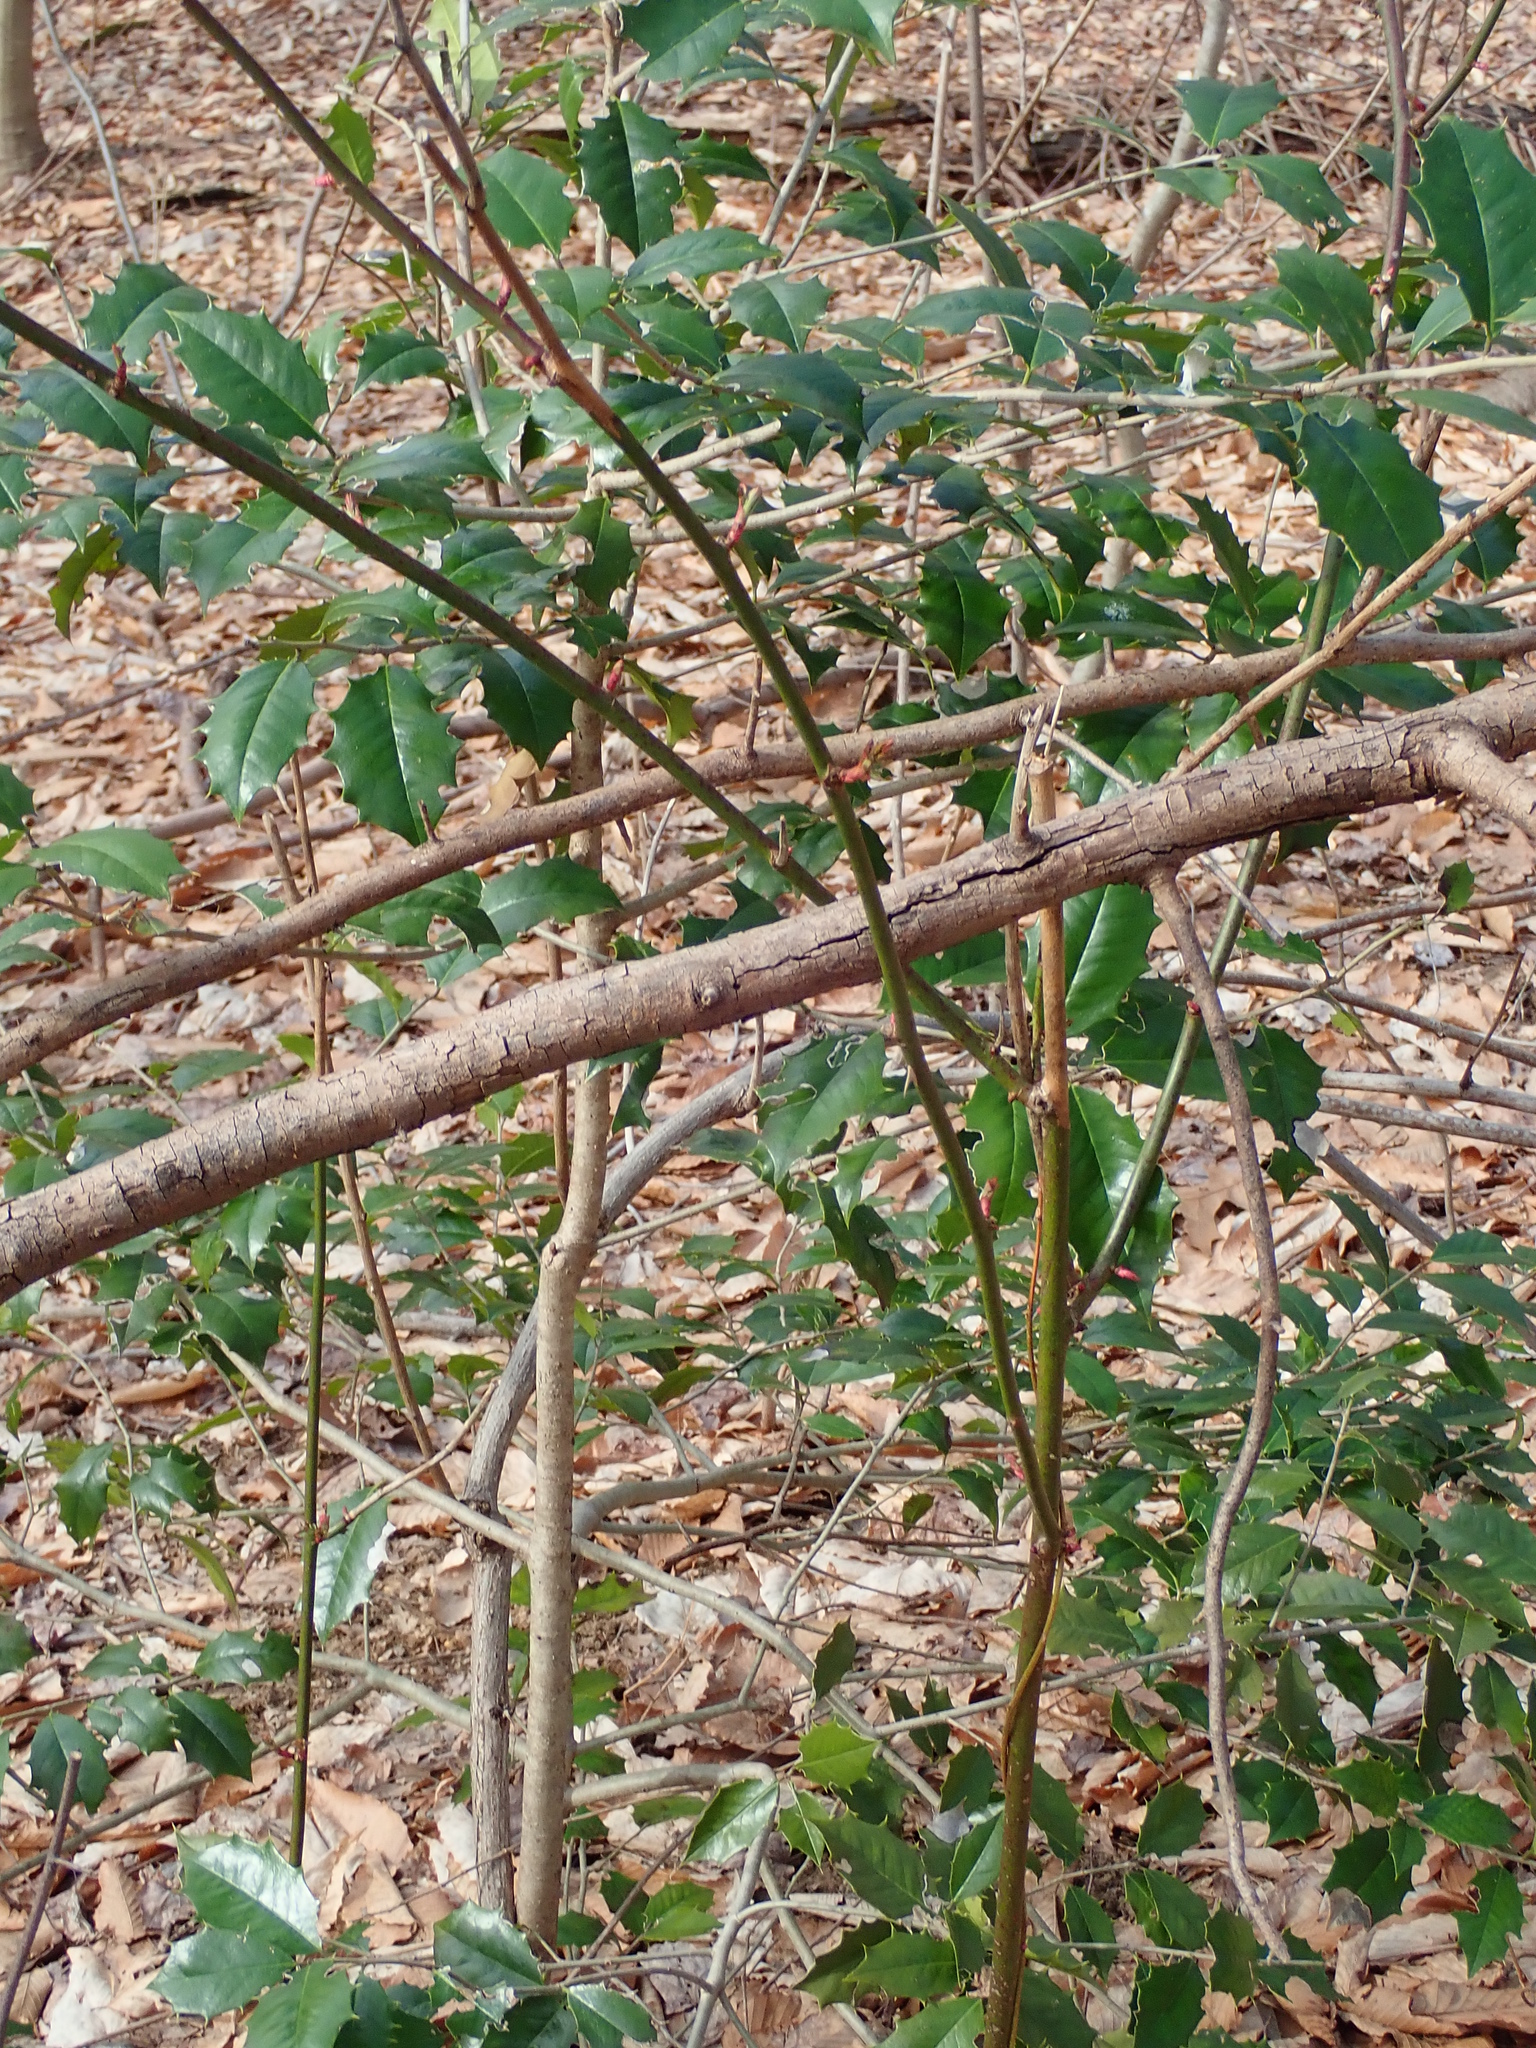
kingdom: Plantae
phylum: Tracheophyta
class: Magnoliopsida
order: Aquifoliales
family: Aquifoliaceae
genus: Ilex
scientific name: Ilex opaca
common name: American holly
